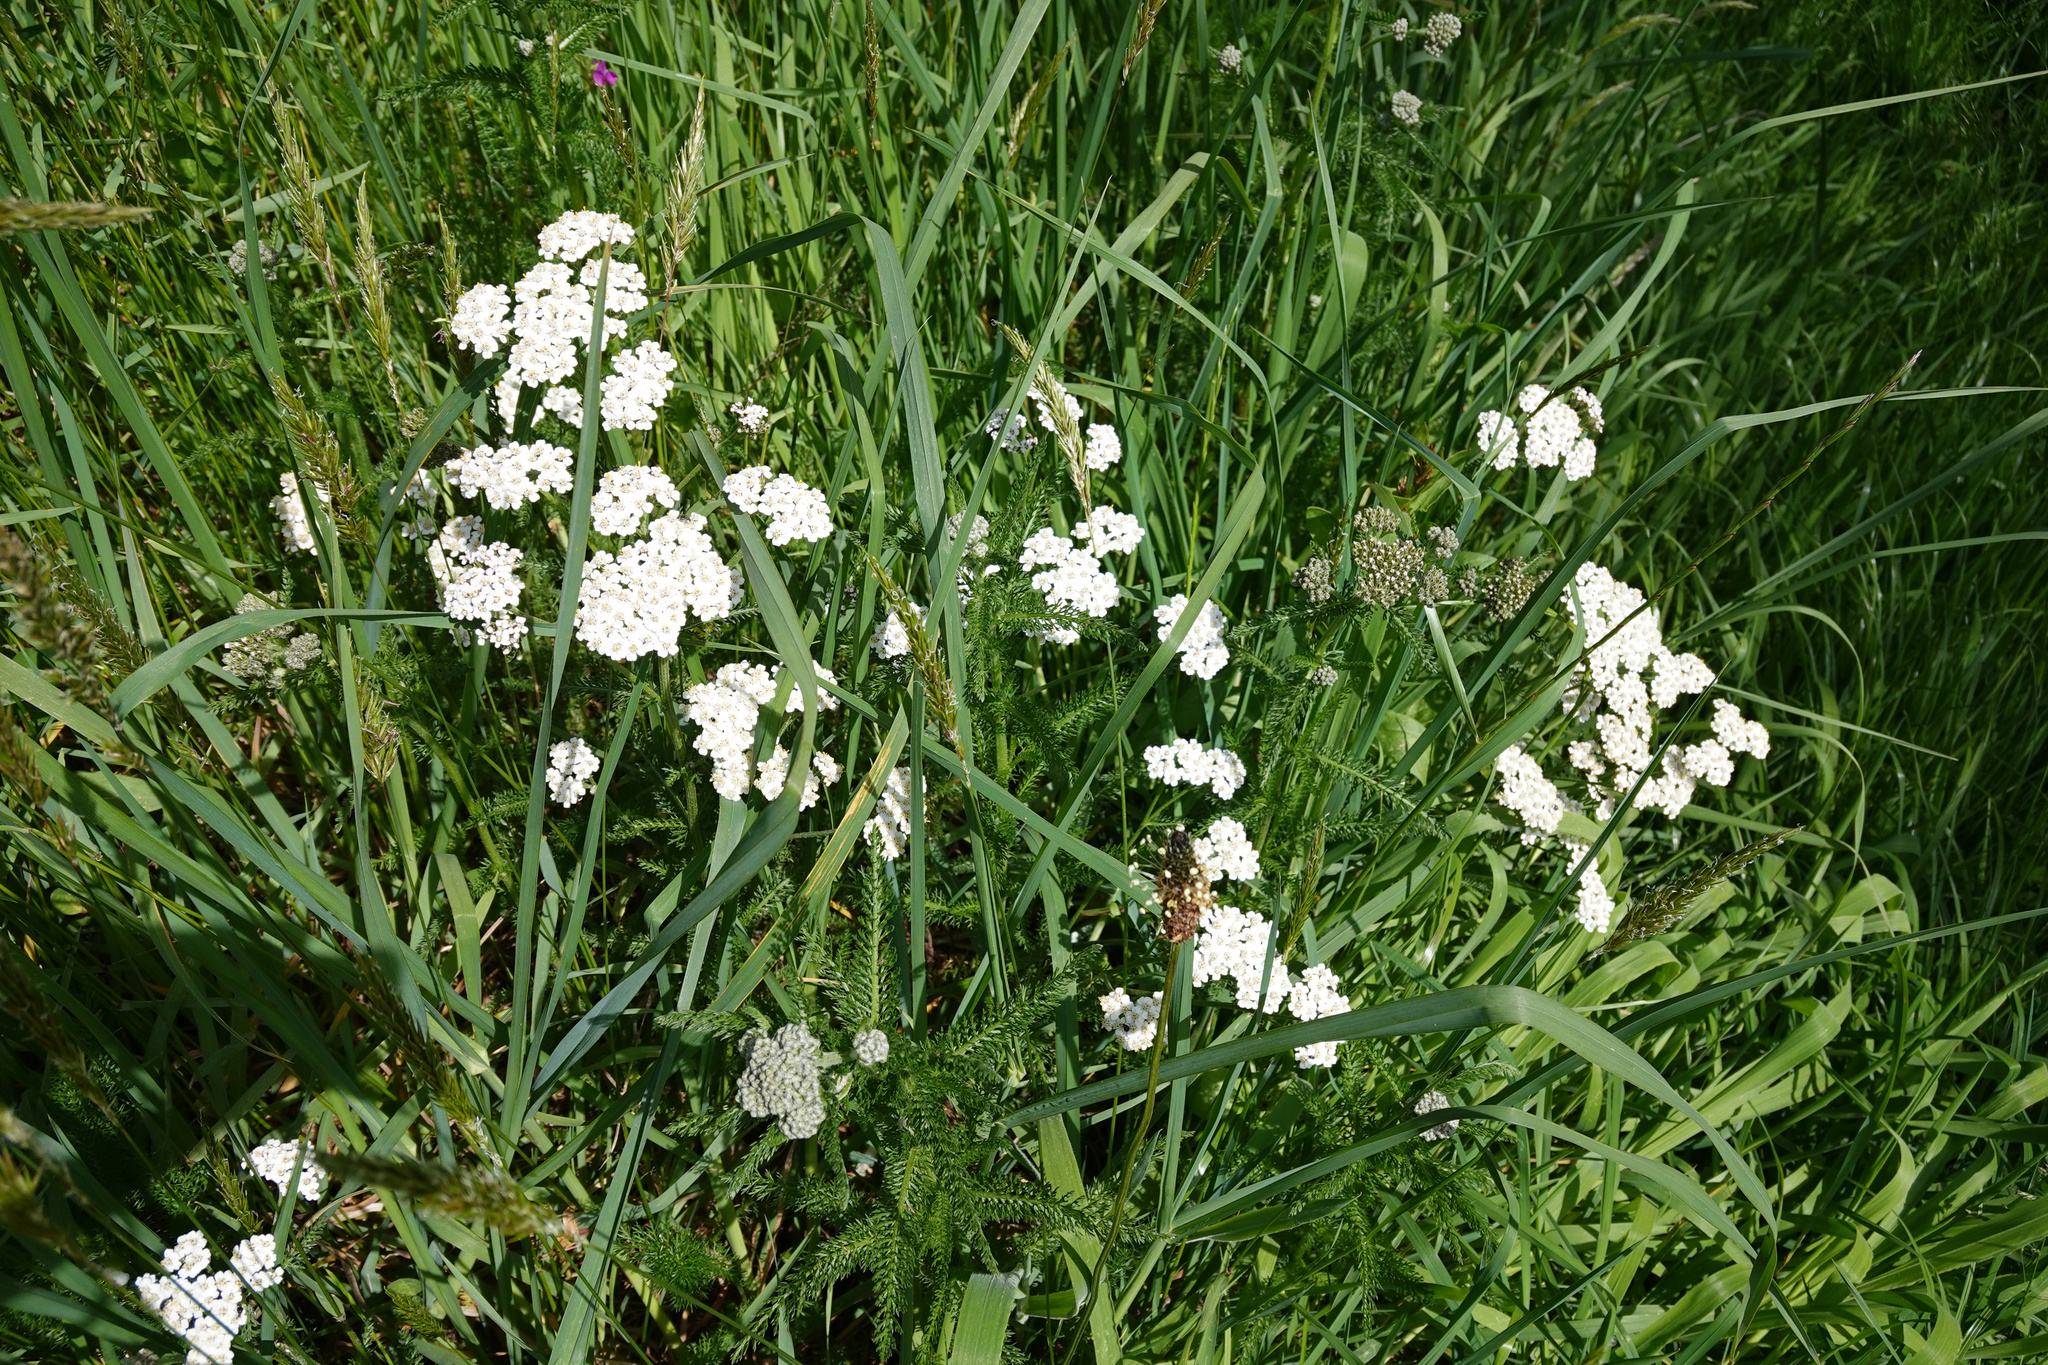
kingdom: Plantae
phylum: Tracheophyta
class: Magnoliopsida
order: Asterales
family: Asteraceae
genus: Achillea
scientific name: Achillea millefolium
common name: Yarrow
